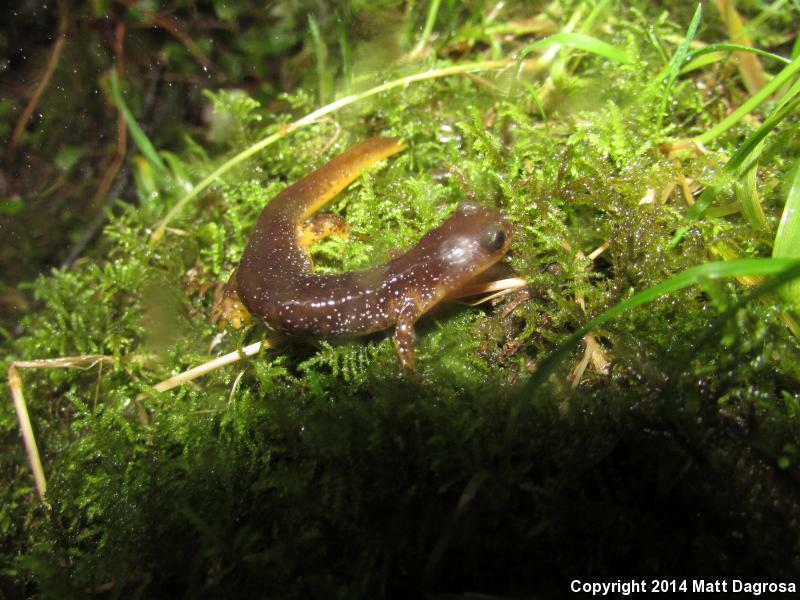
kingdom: Animalia
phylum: Chordata
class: Amphibia
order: Caudata
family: Rhyacotritonidae
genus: Rhyacotriton
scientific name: Rhyacotriton kezeri
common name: Columbia torrent salamander
